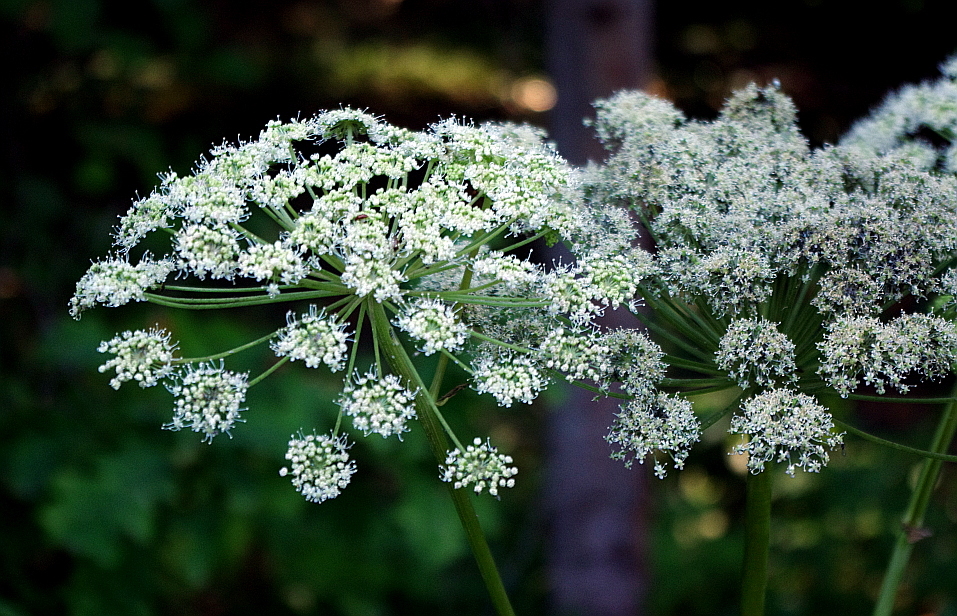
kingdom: Plantae
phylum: Tracheophyta
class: Magnoliopsida
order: Apiales
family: Apiaceae
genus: Angelica
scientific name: Angelica sylvestris
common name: Wild angelica
